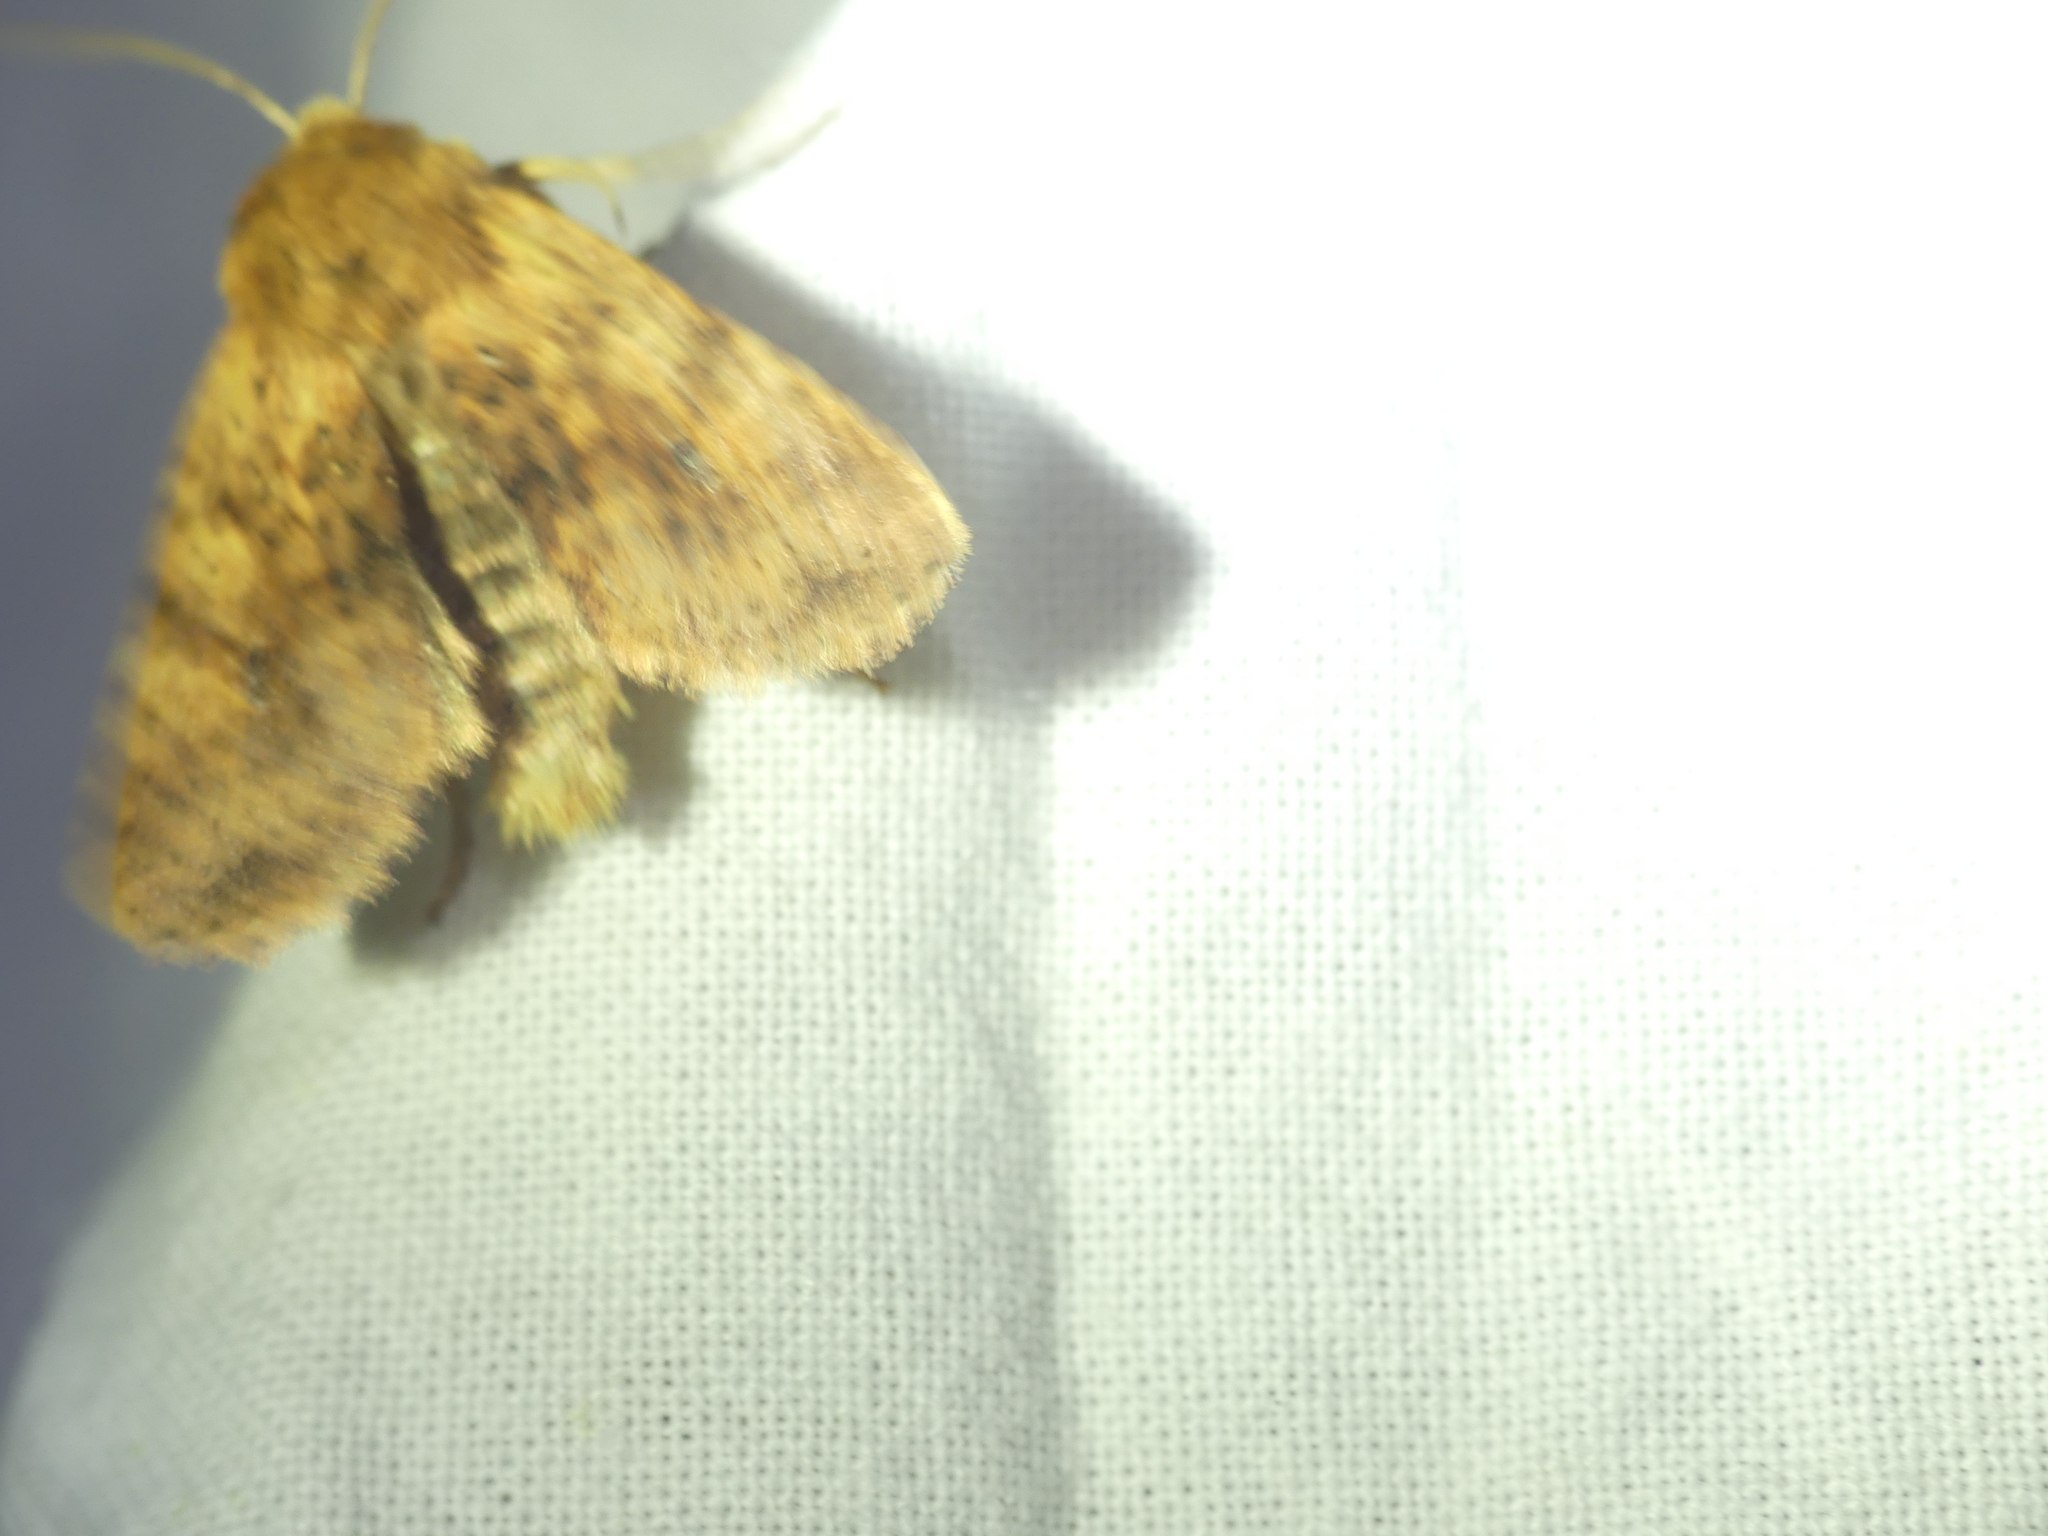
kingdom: Animalia
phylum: Arthropoda
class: Insecta
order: Lepidoptera
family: Noctuidae
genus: Conistra
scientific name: Conistra rubiginea
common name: Dotted chestnut
